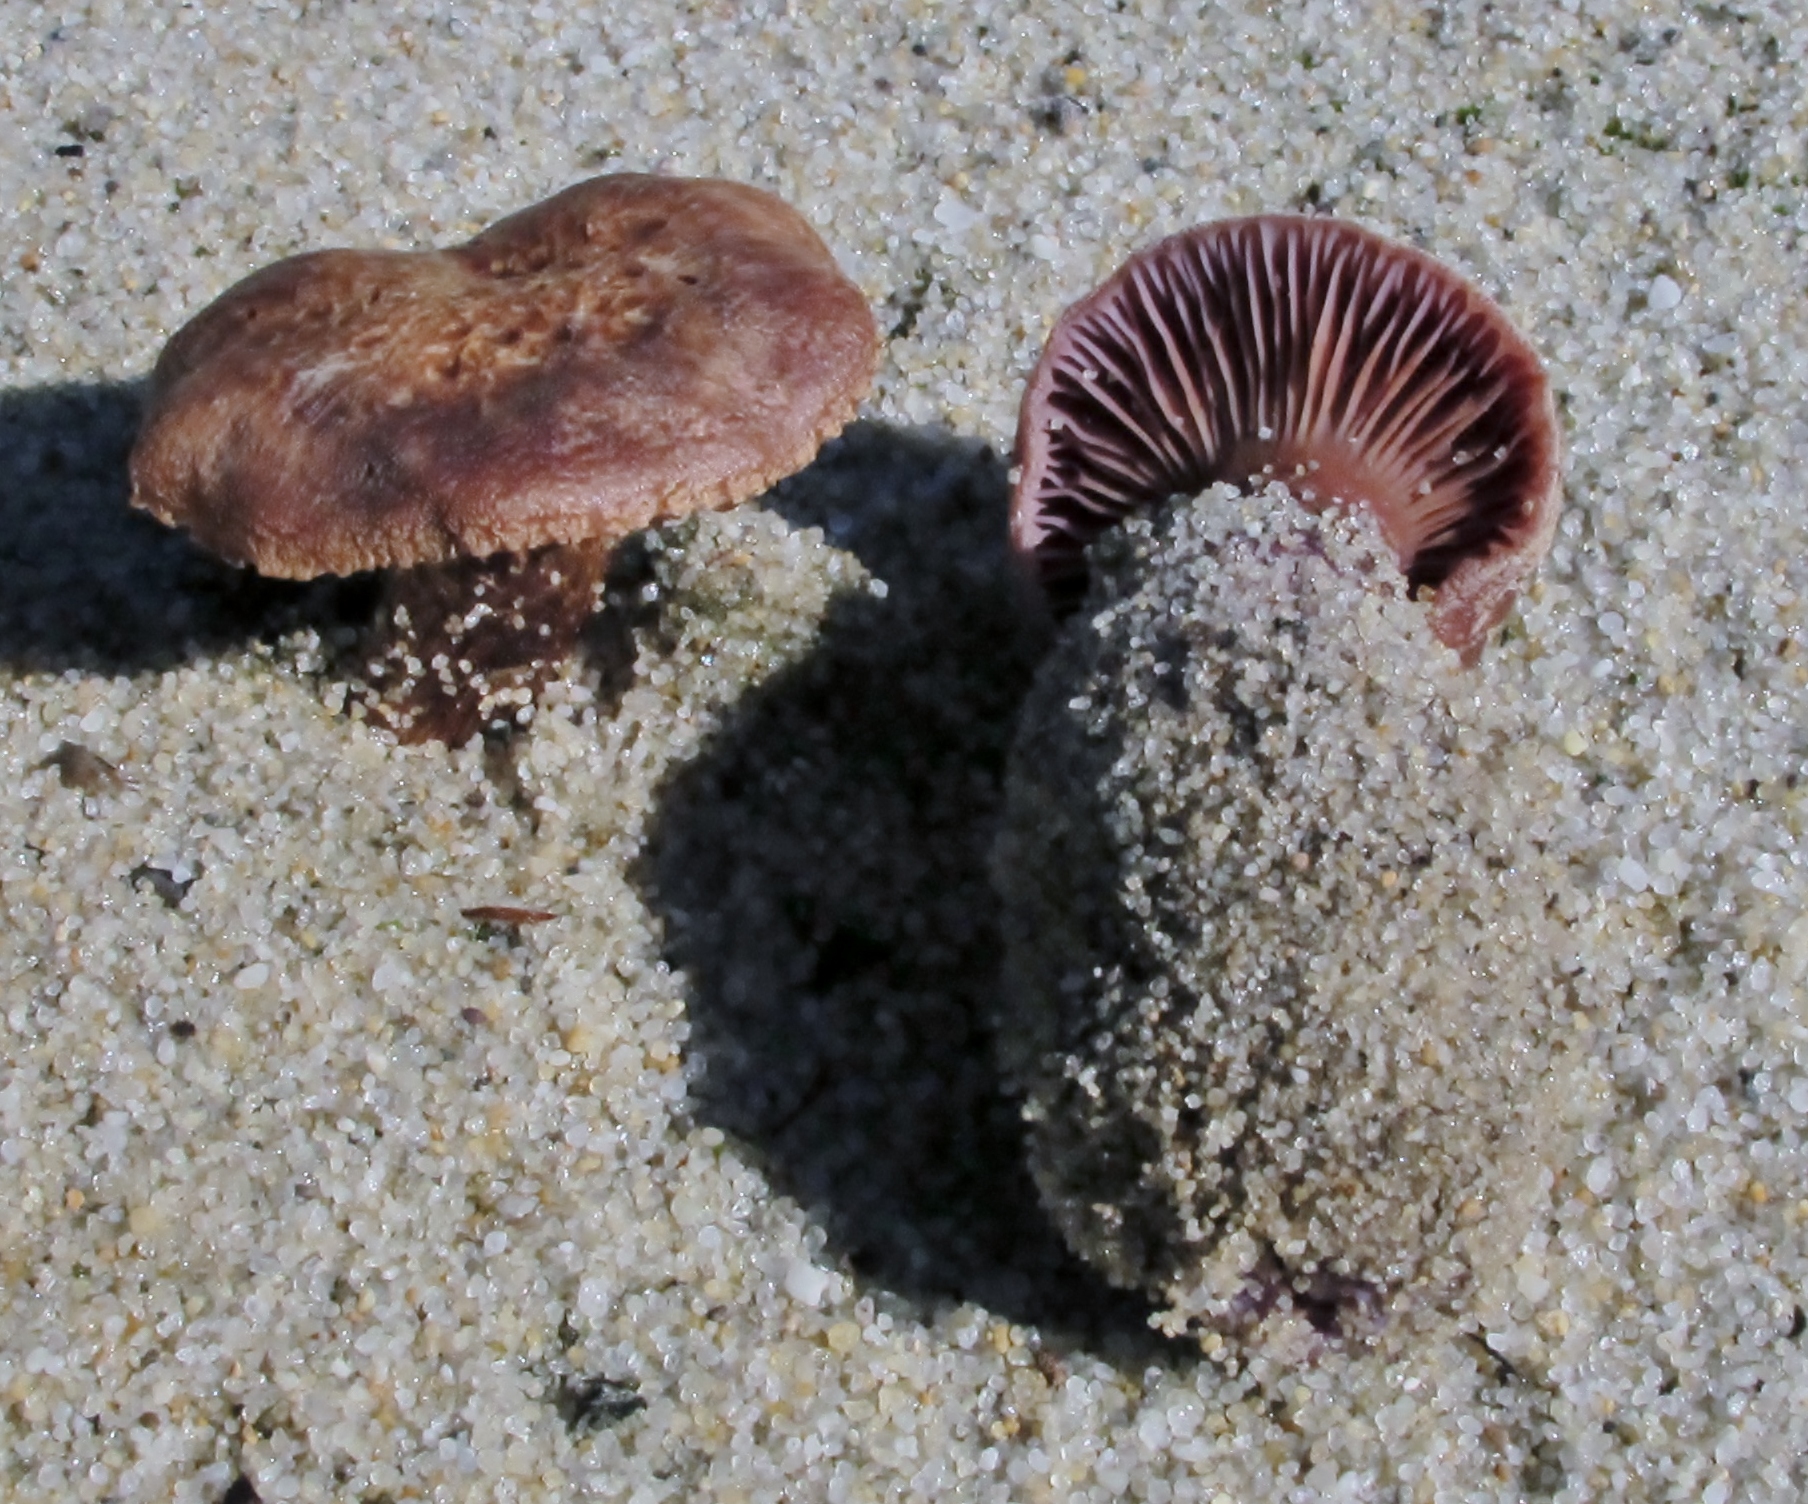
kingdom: Fungi
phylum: Basidiomycota
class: Agaricomycetes
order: Agaricales
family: Hydnangiaceae
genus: Laccaria
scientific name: Laccaria trullissata
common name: Sandy laccaria
